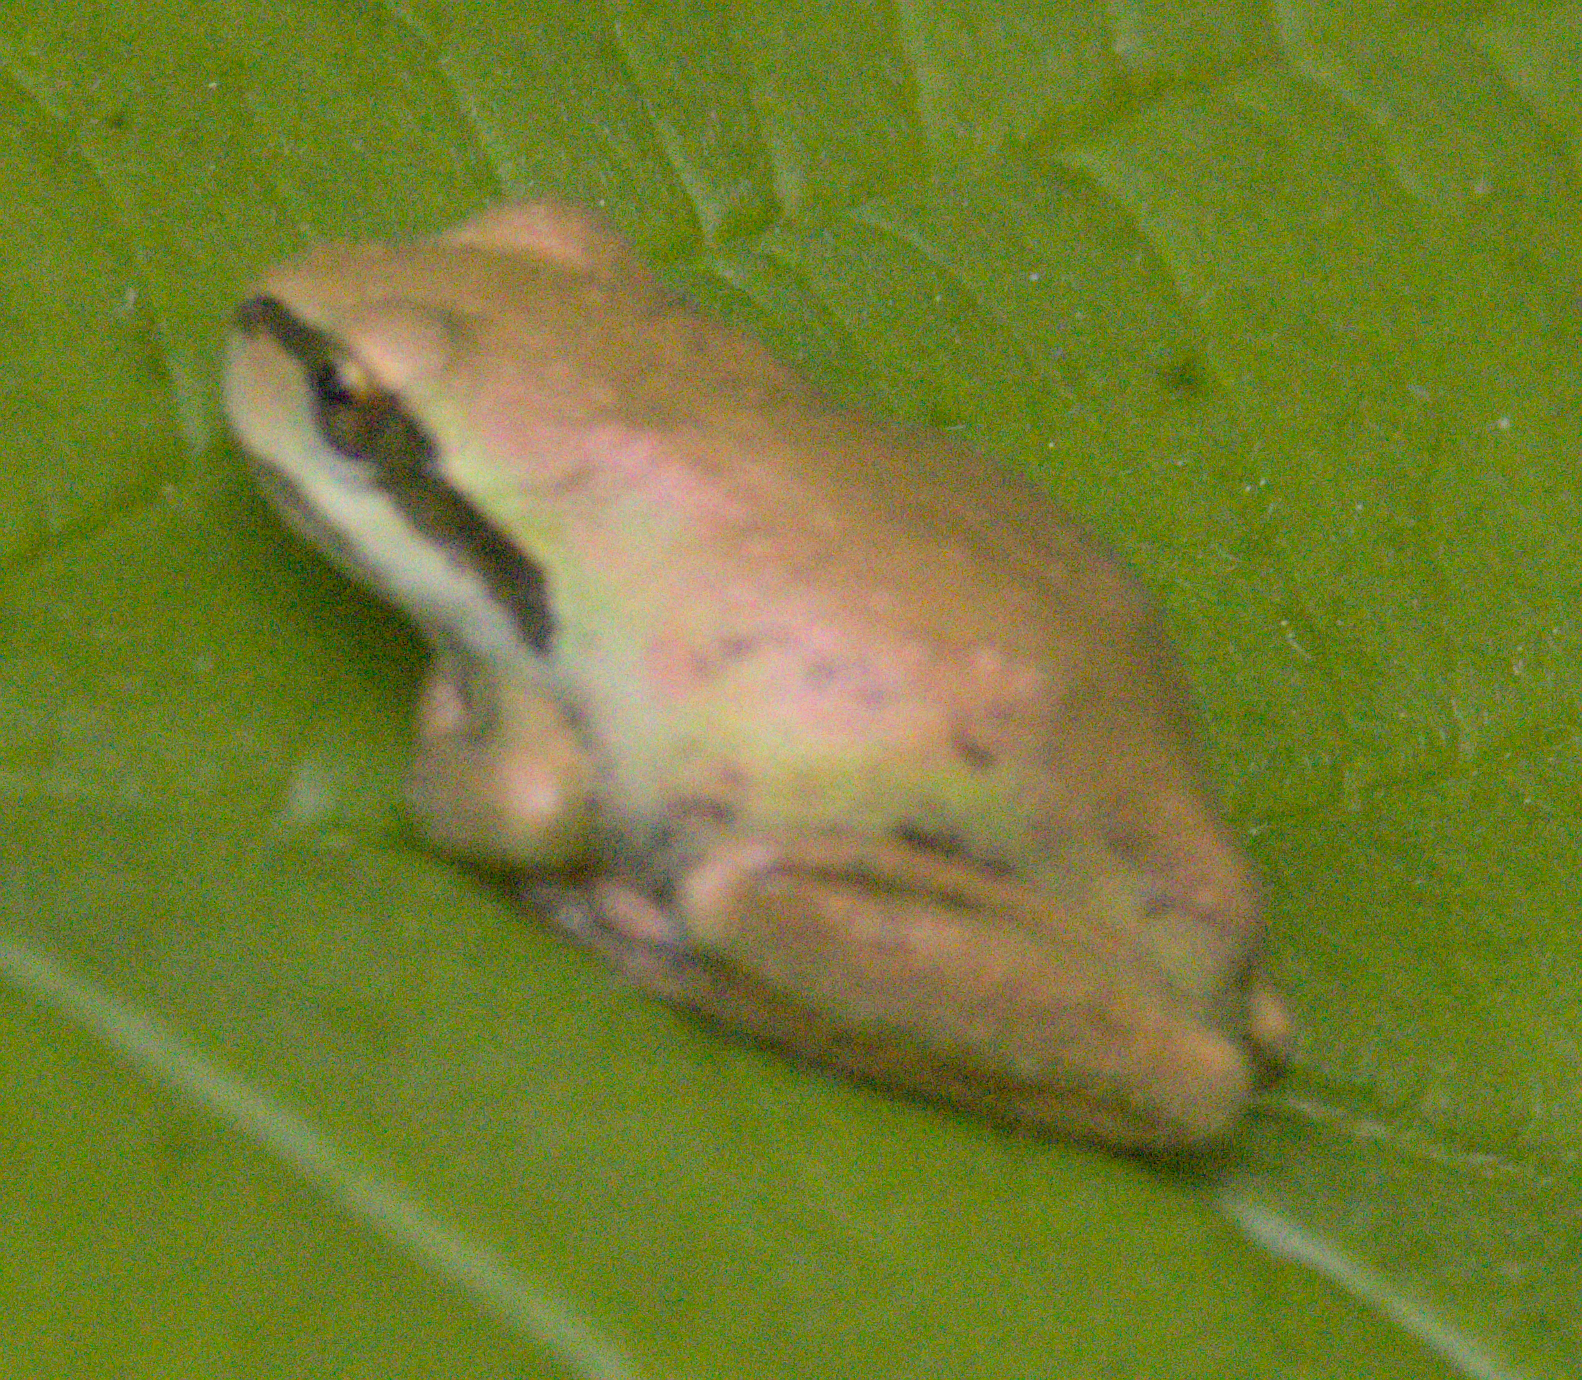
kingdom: Animalia
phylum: Chordata
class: Amphibia
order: Anura
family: Hylidae
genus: Pseudacris
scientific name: Pseudacris regilla
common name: Pacific chorus frog
